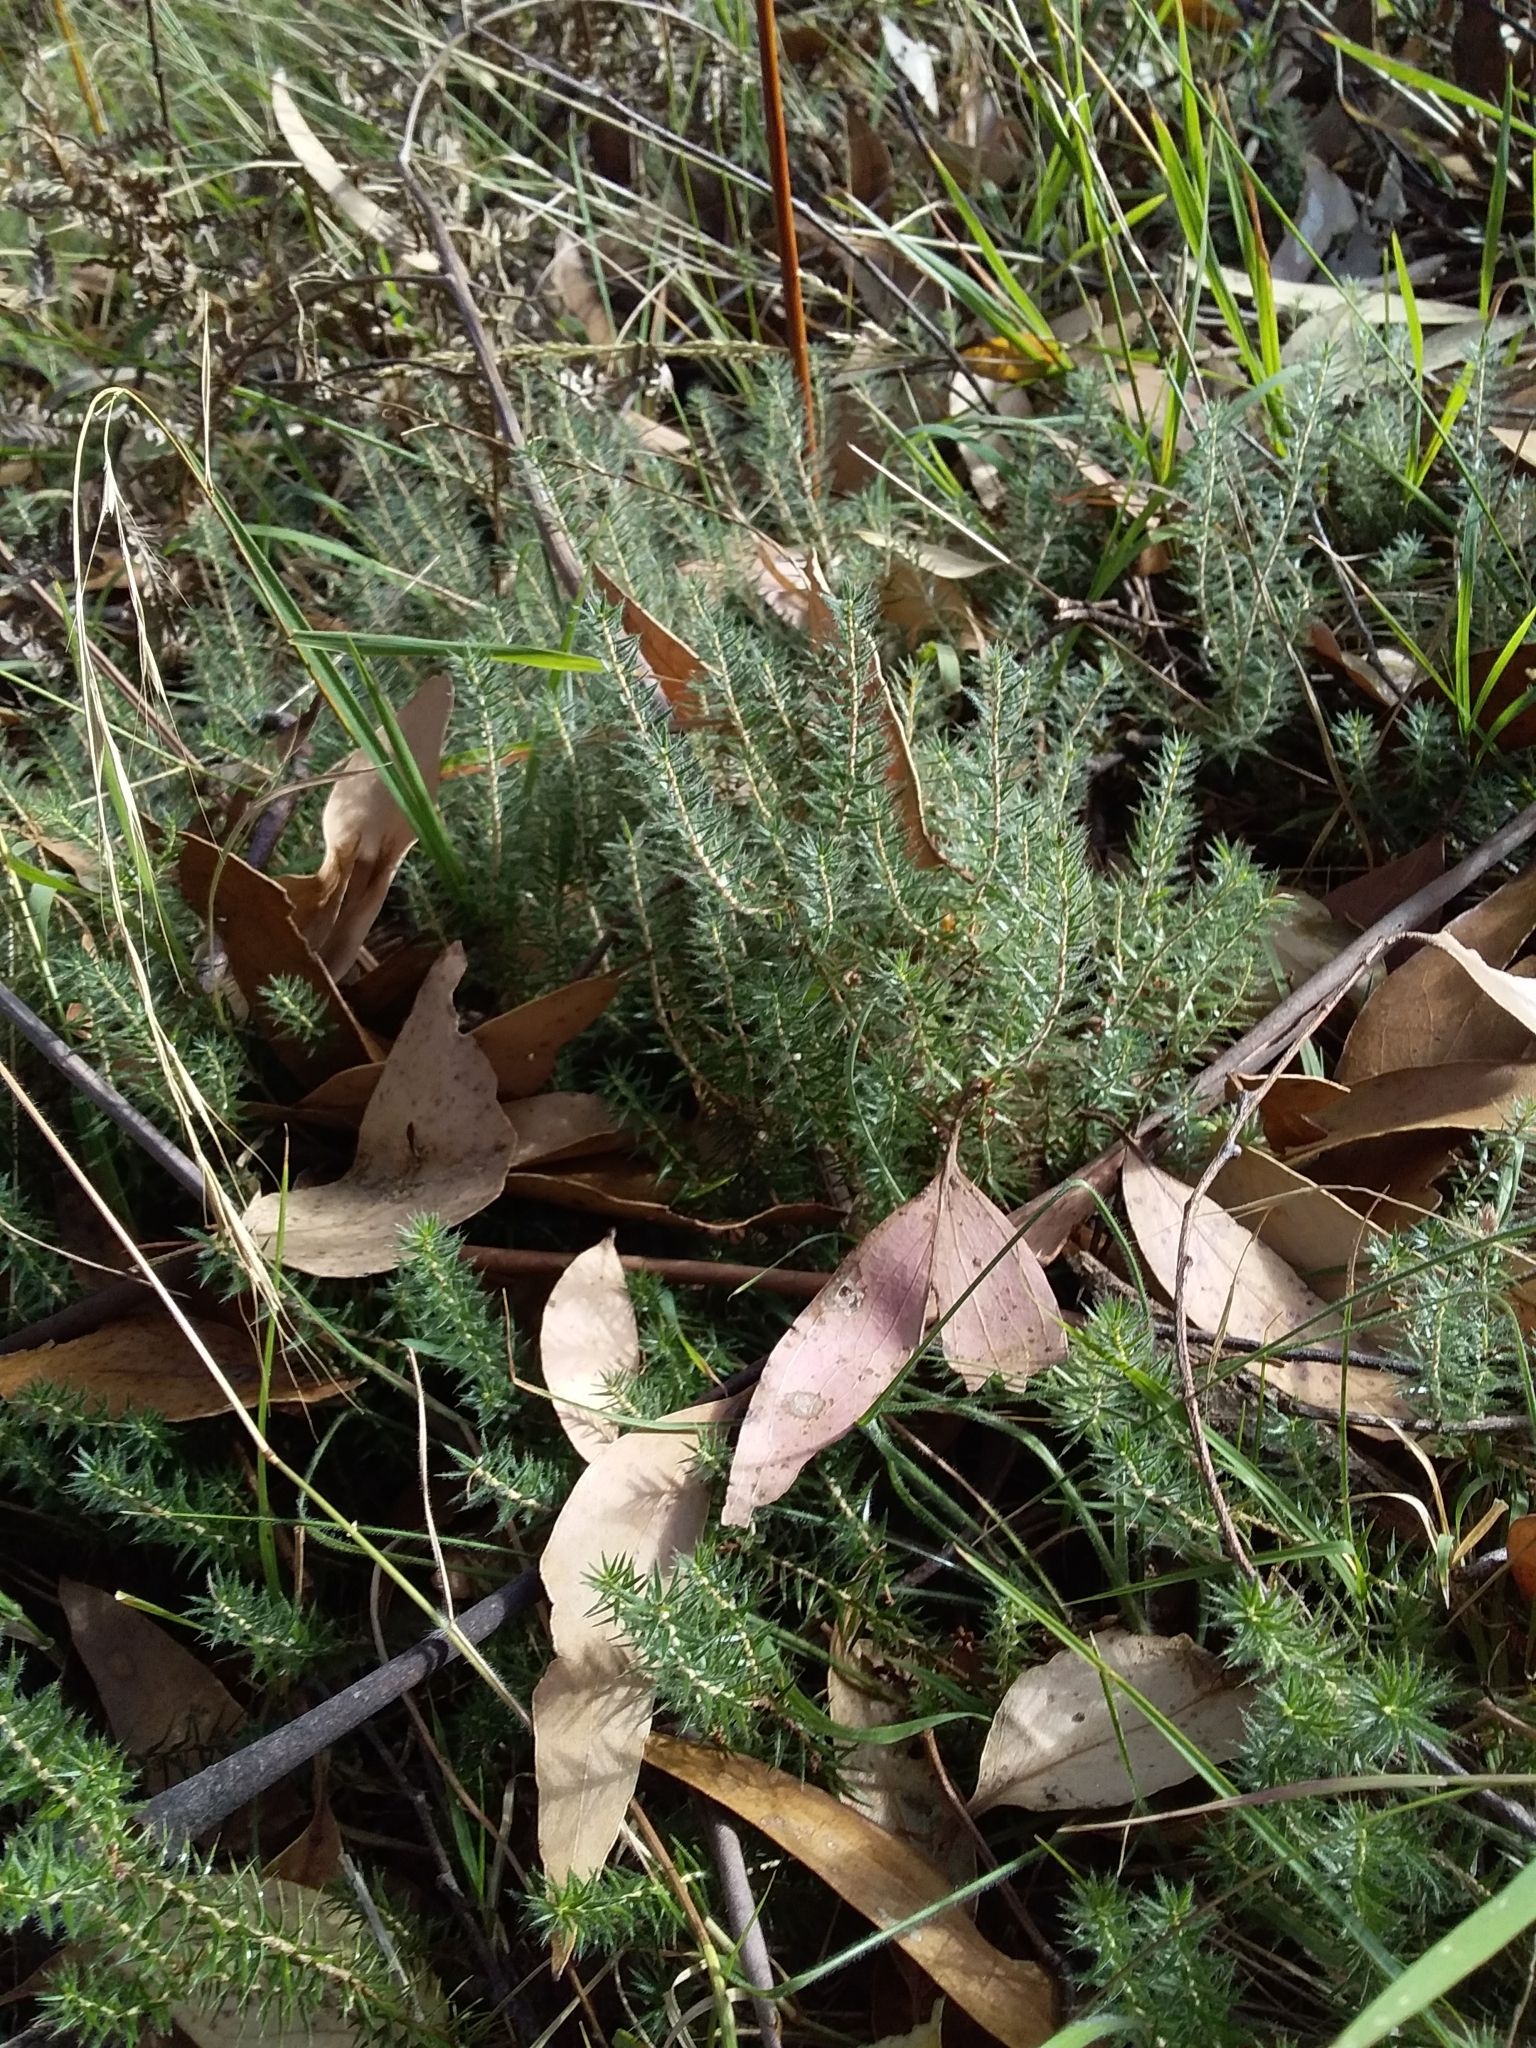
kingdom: Plantae
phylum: Tracheophyta
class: Magnoliopsida
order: Ericales
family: Ericaceae
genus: Acrotriche
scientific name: Acrotriche serrulata
